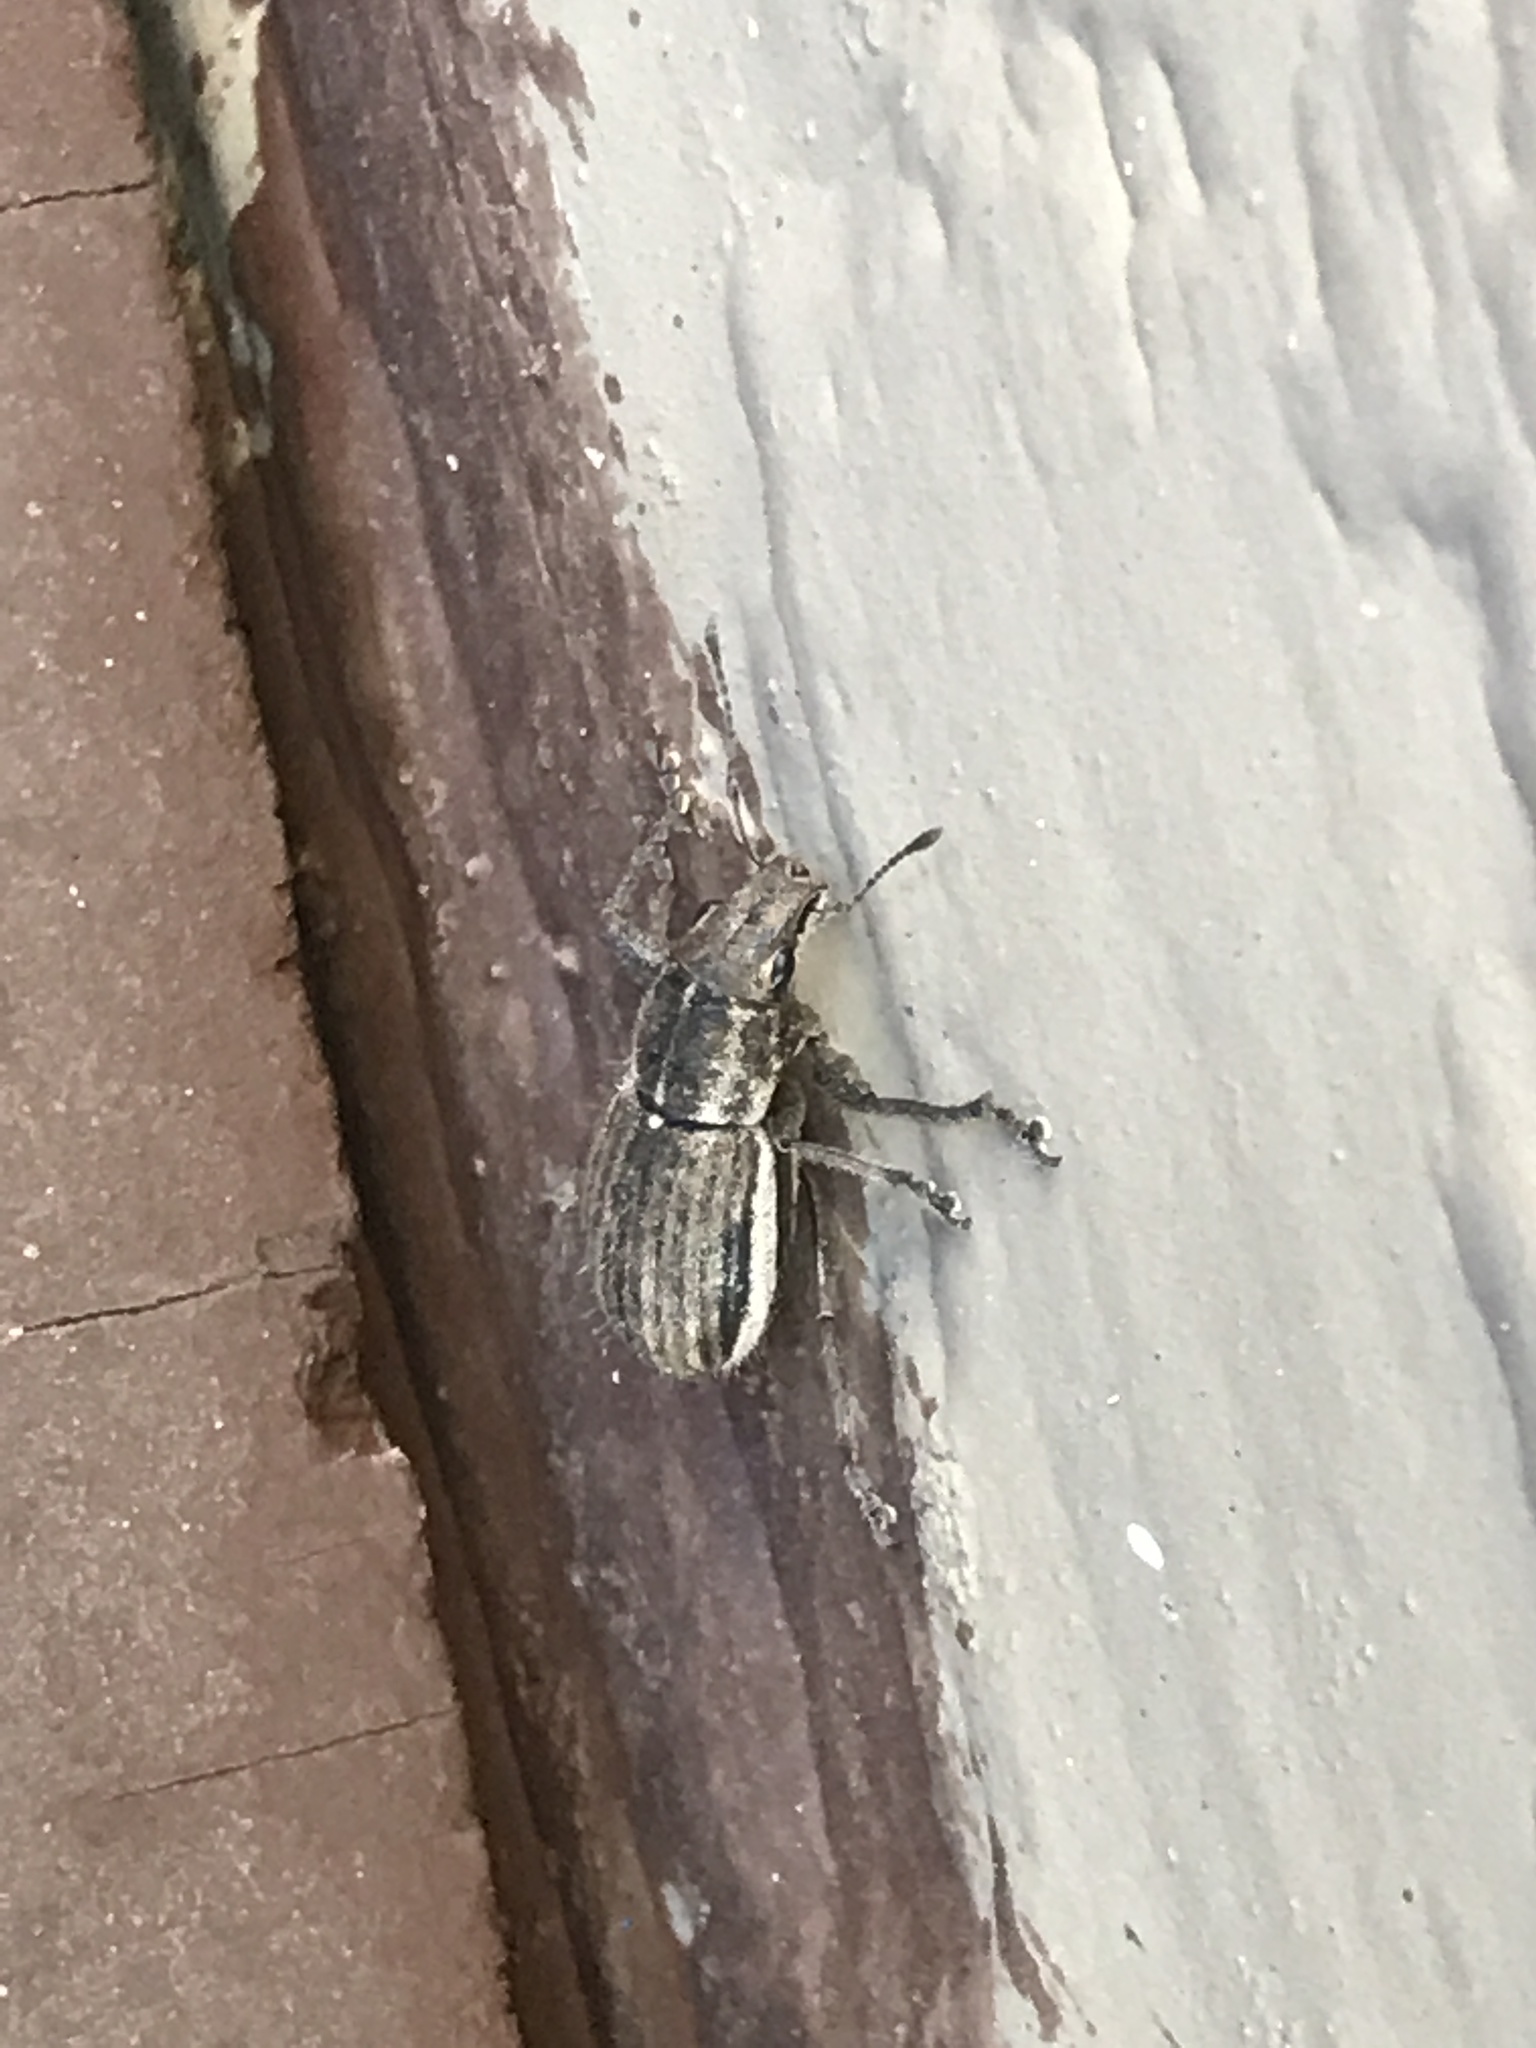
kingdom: Animalia
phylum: Arthropoda
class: Insecta
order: Coleoptera
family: Curculionidae
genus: Naupactus
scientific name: Naupactus leucoloma
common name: Whitefringed beetle
